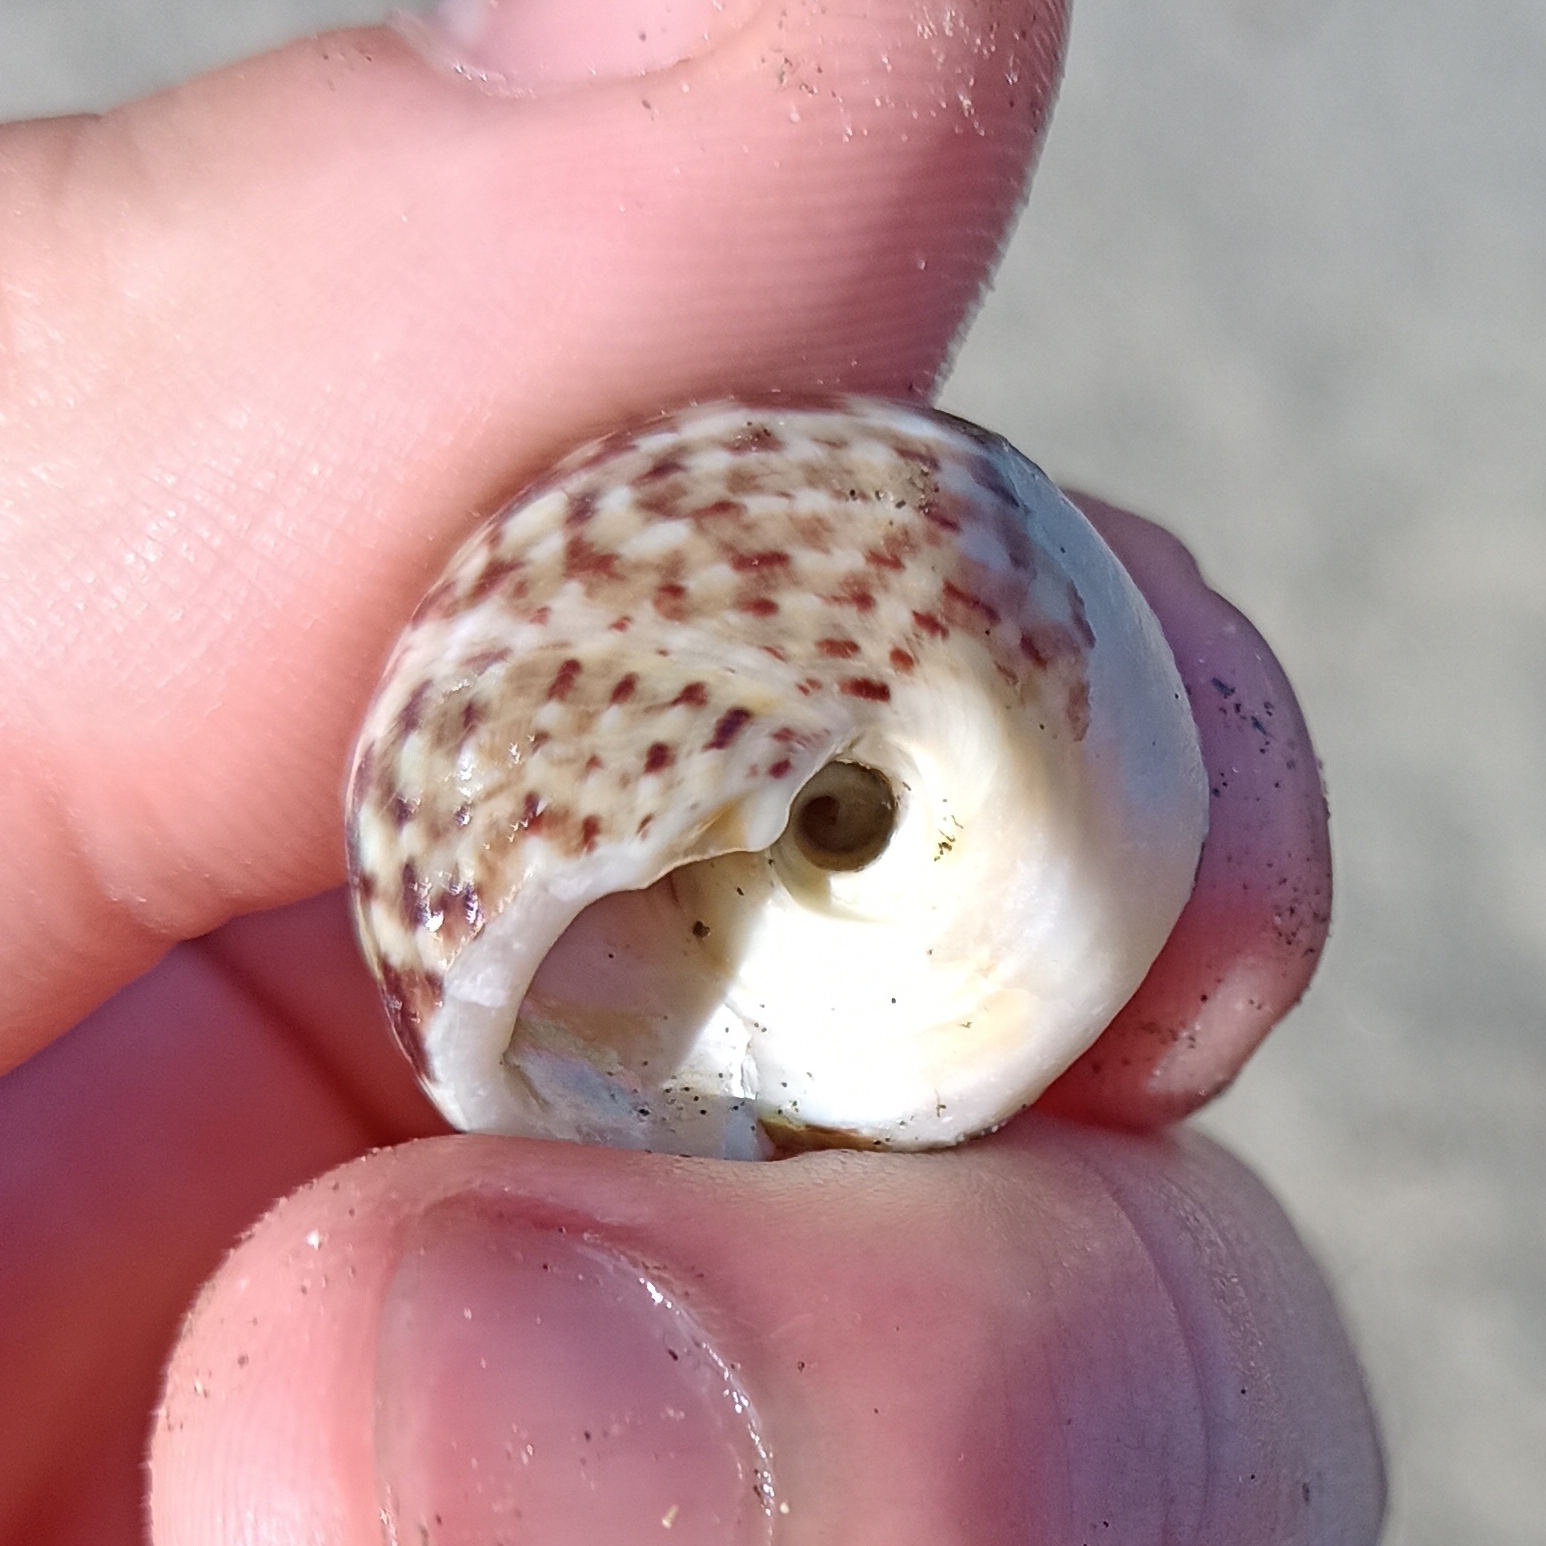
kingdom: Animalia
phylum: Mollusca
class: Gastropoda
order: Trochida
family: Tegulidae
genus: Agathistoma
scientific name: Agathistoma viridulum
